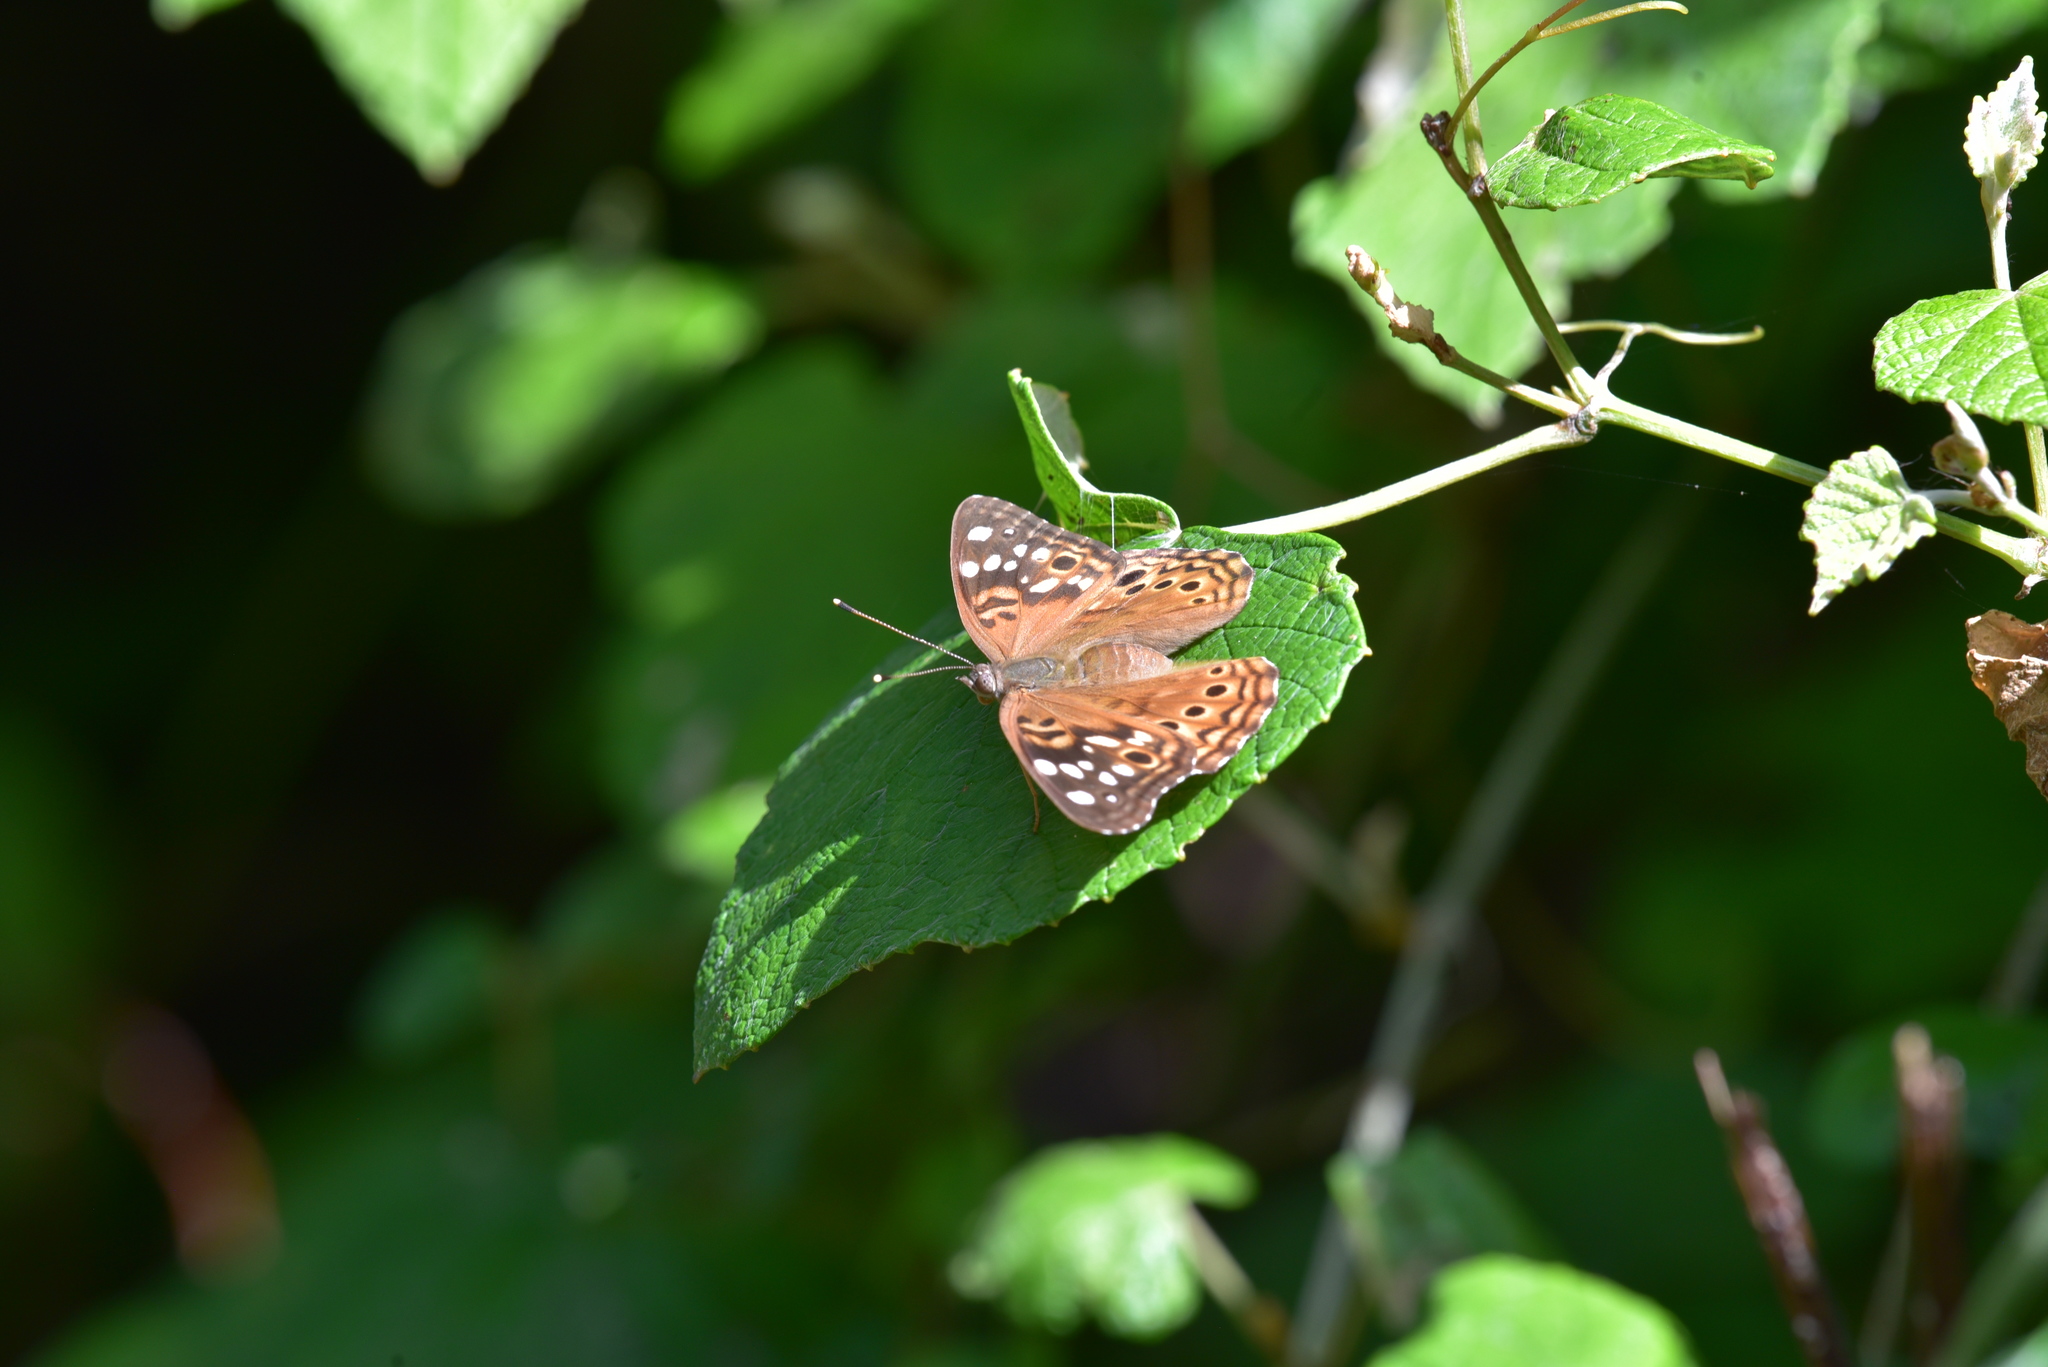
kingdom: Animalia
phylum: Arthropoda
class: Insecta
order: Lepidoptera
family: Nymphalidae
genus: Asterocampa
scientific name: Asterocampa celtis
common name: Hackberry emperor
